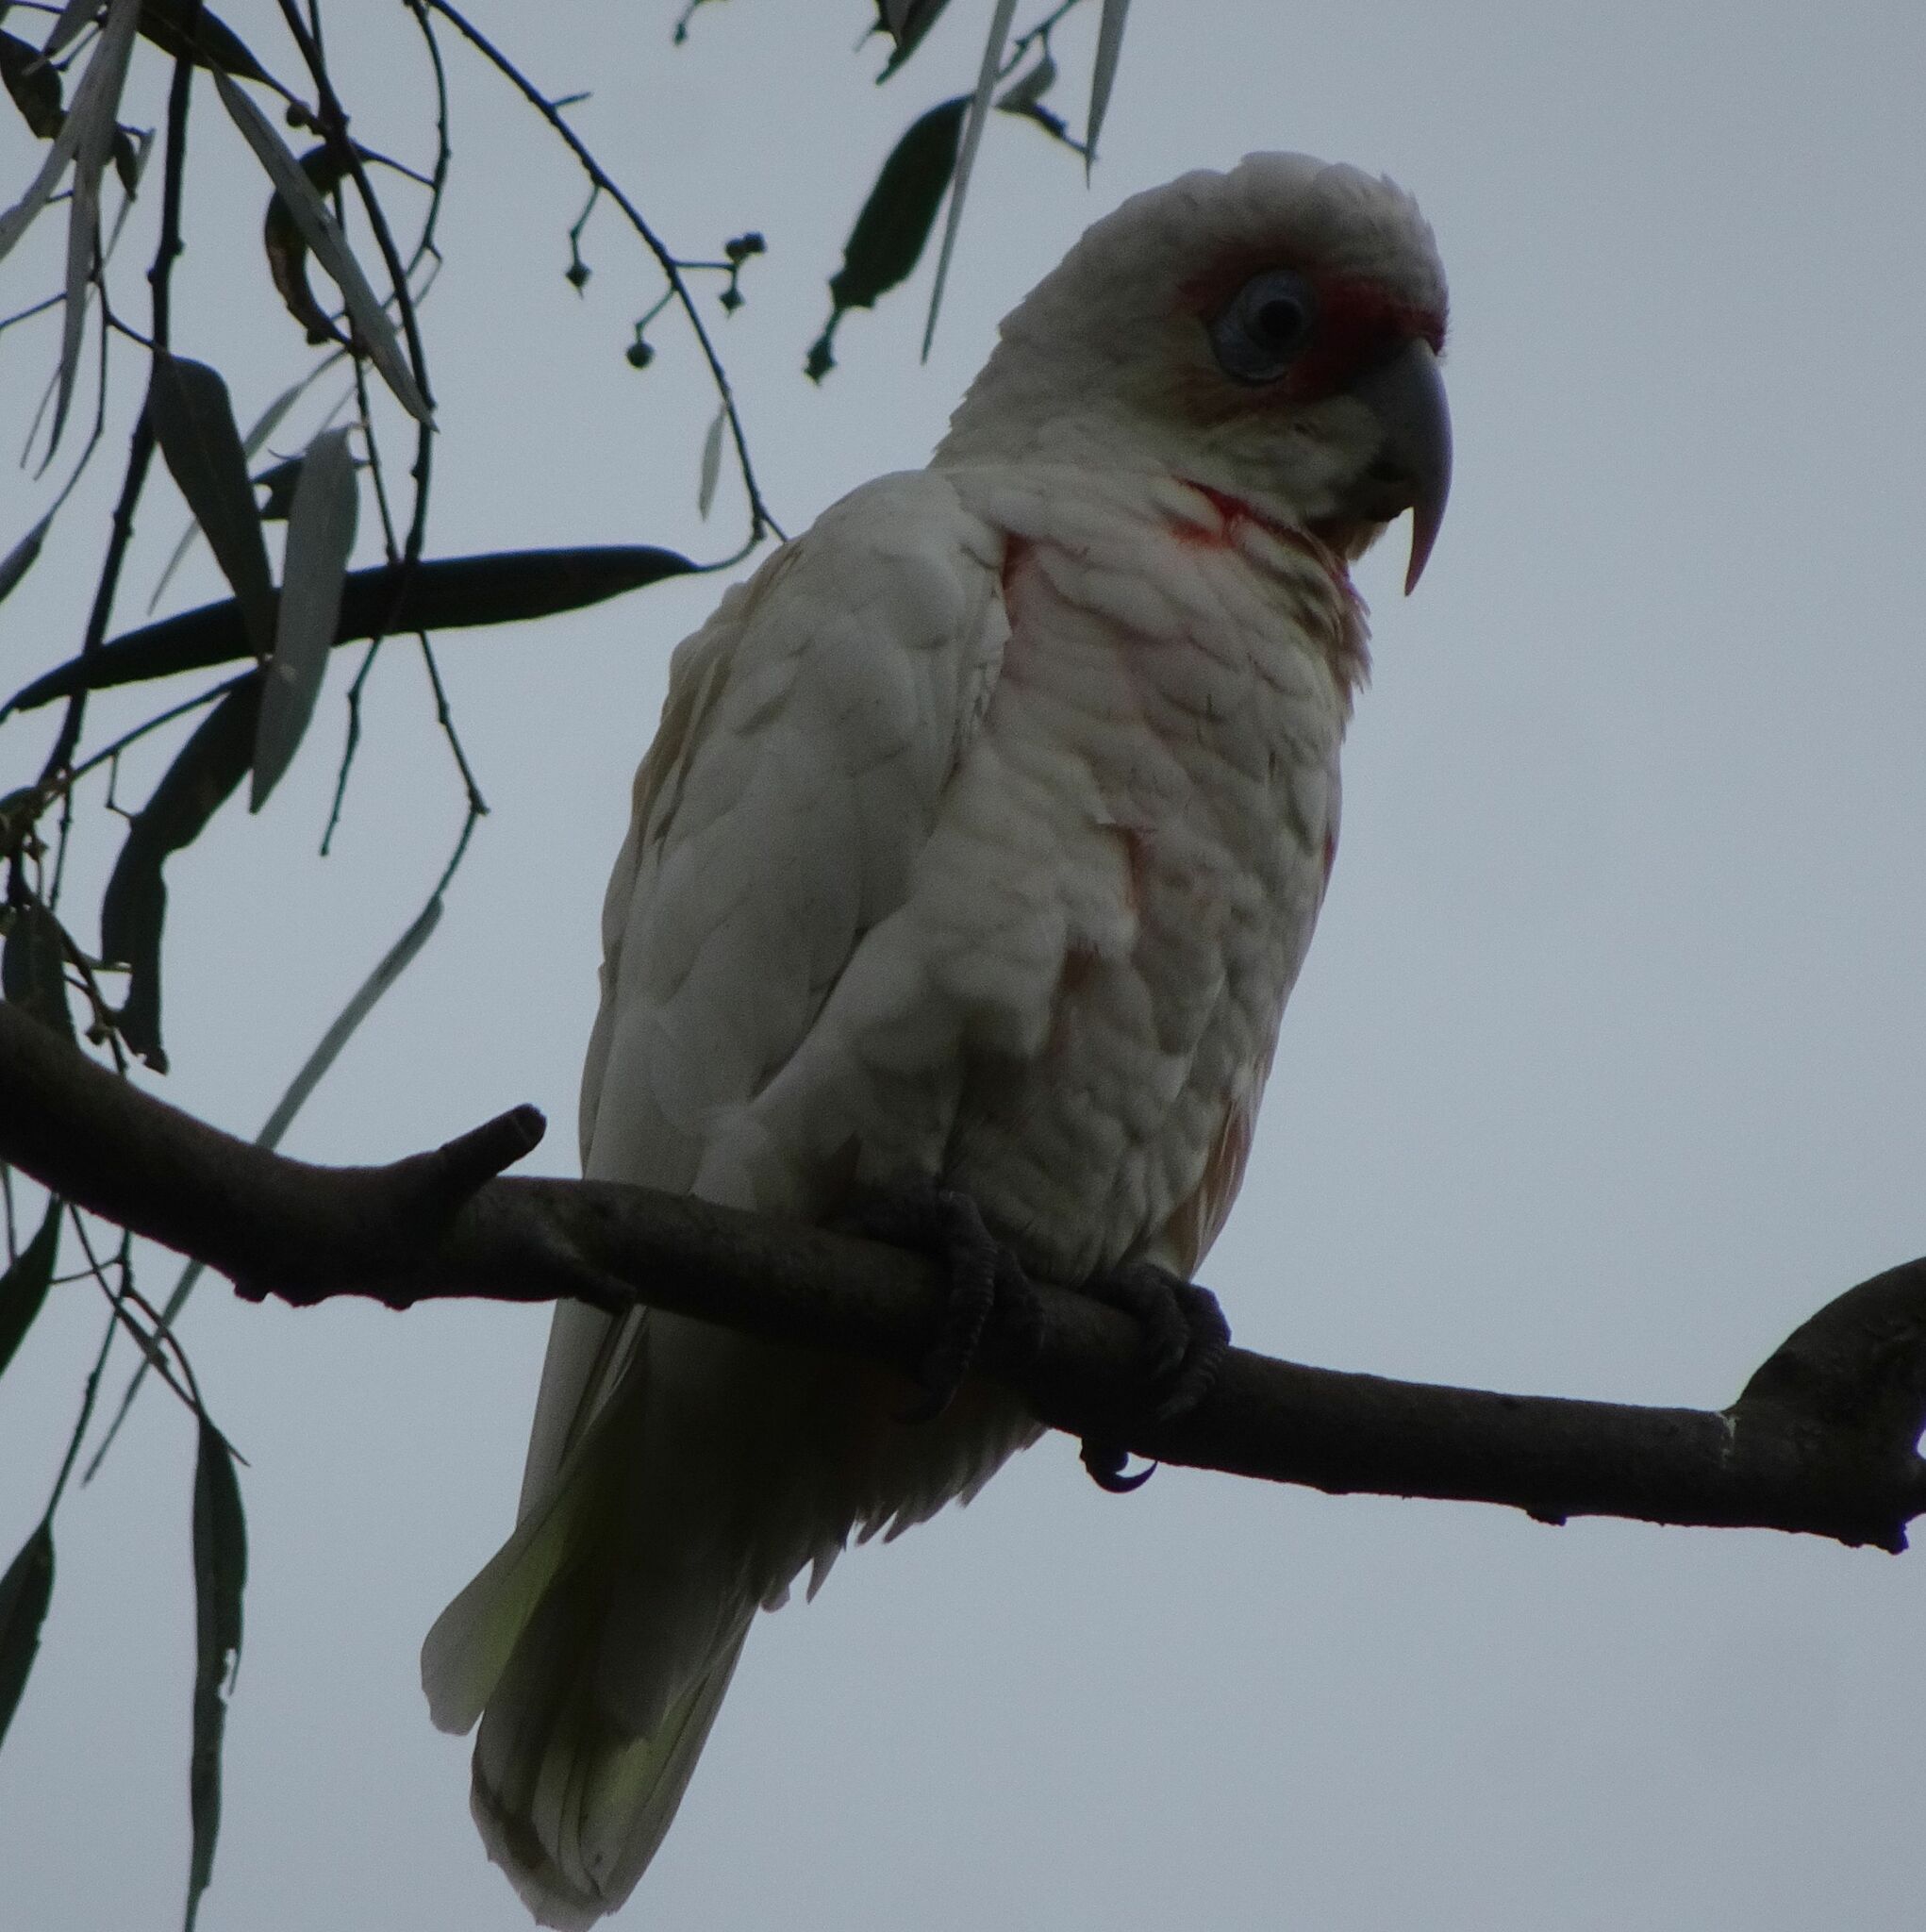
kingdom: Animalia
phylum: Chordata
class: Aves
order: Psittaciformes
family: Psittacidae
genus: Cacatua
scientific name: Cacatua tenuirostris
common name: Long-billed corella
